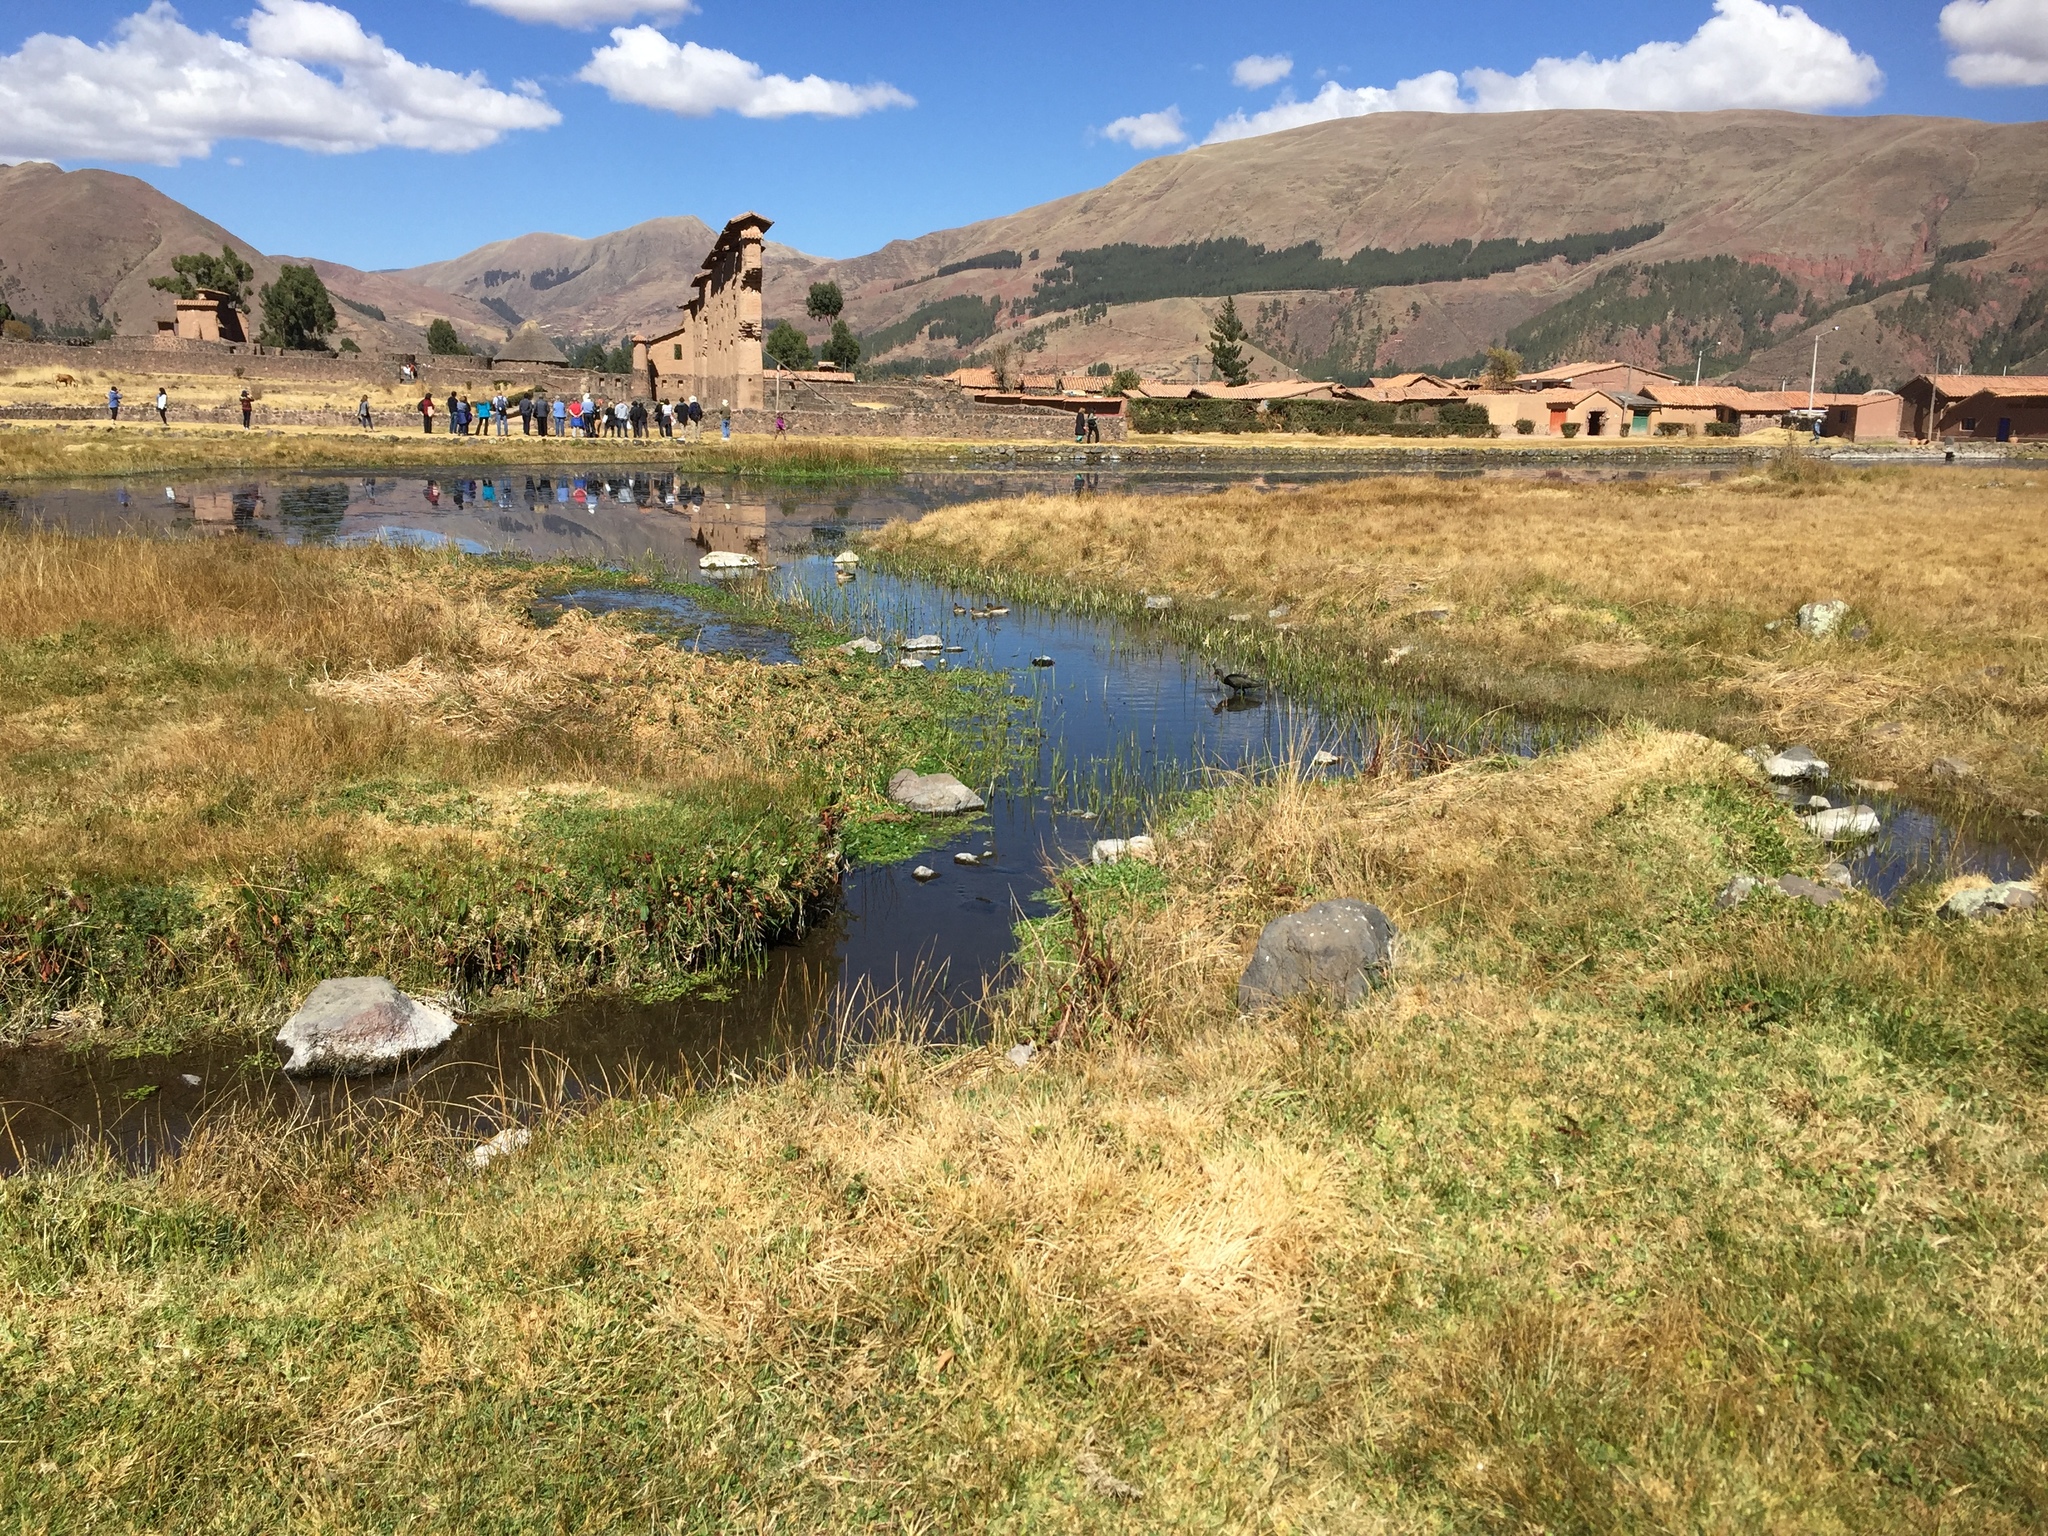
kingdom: Animalia
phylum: Chordata
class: Aves
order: Anseriformes
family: Anatidae
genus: Anas
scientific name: Anas flavirostris
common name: Yellow-billed teal
